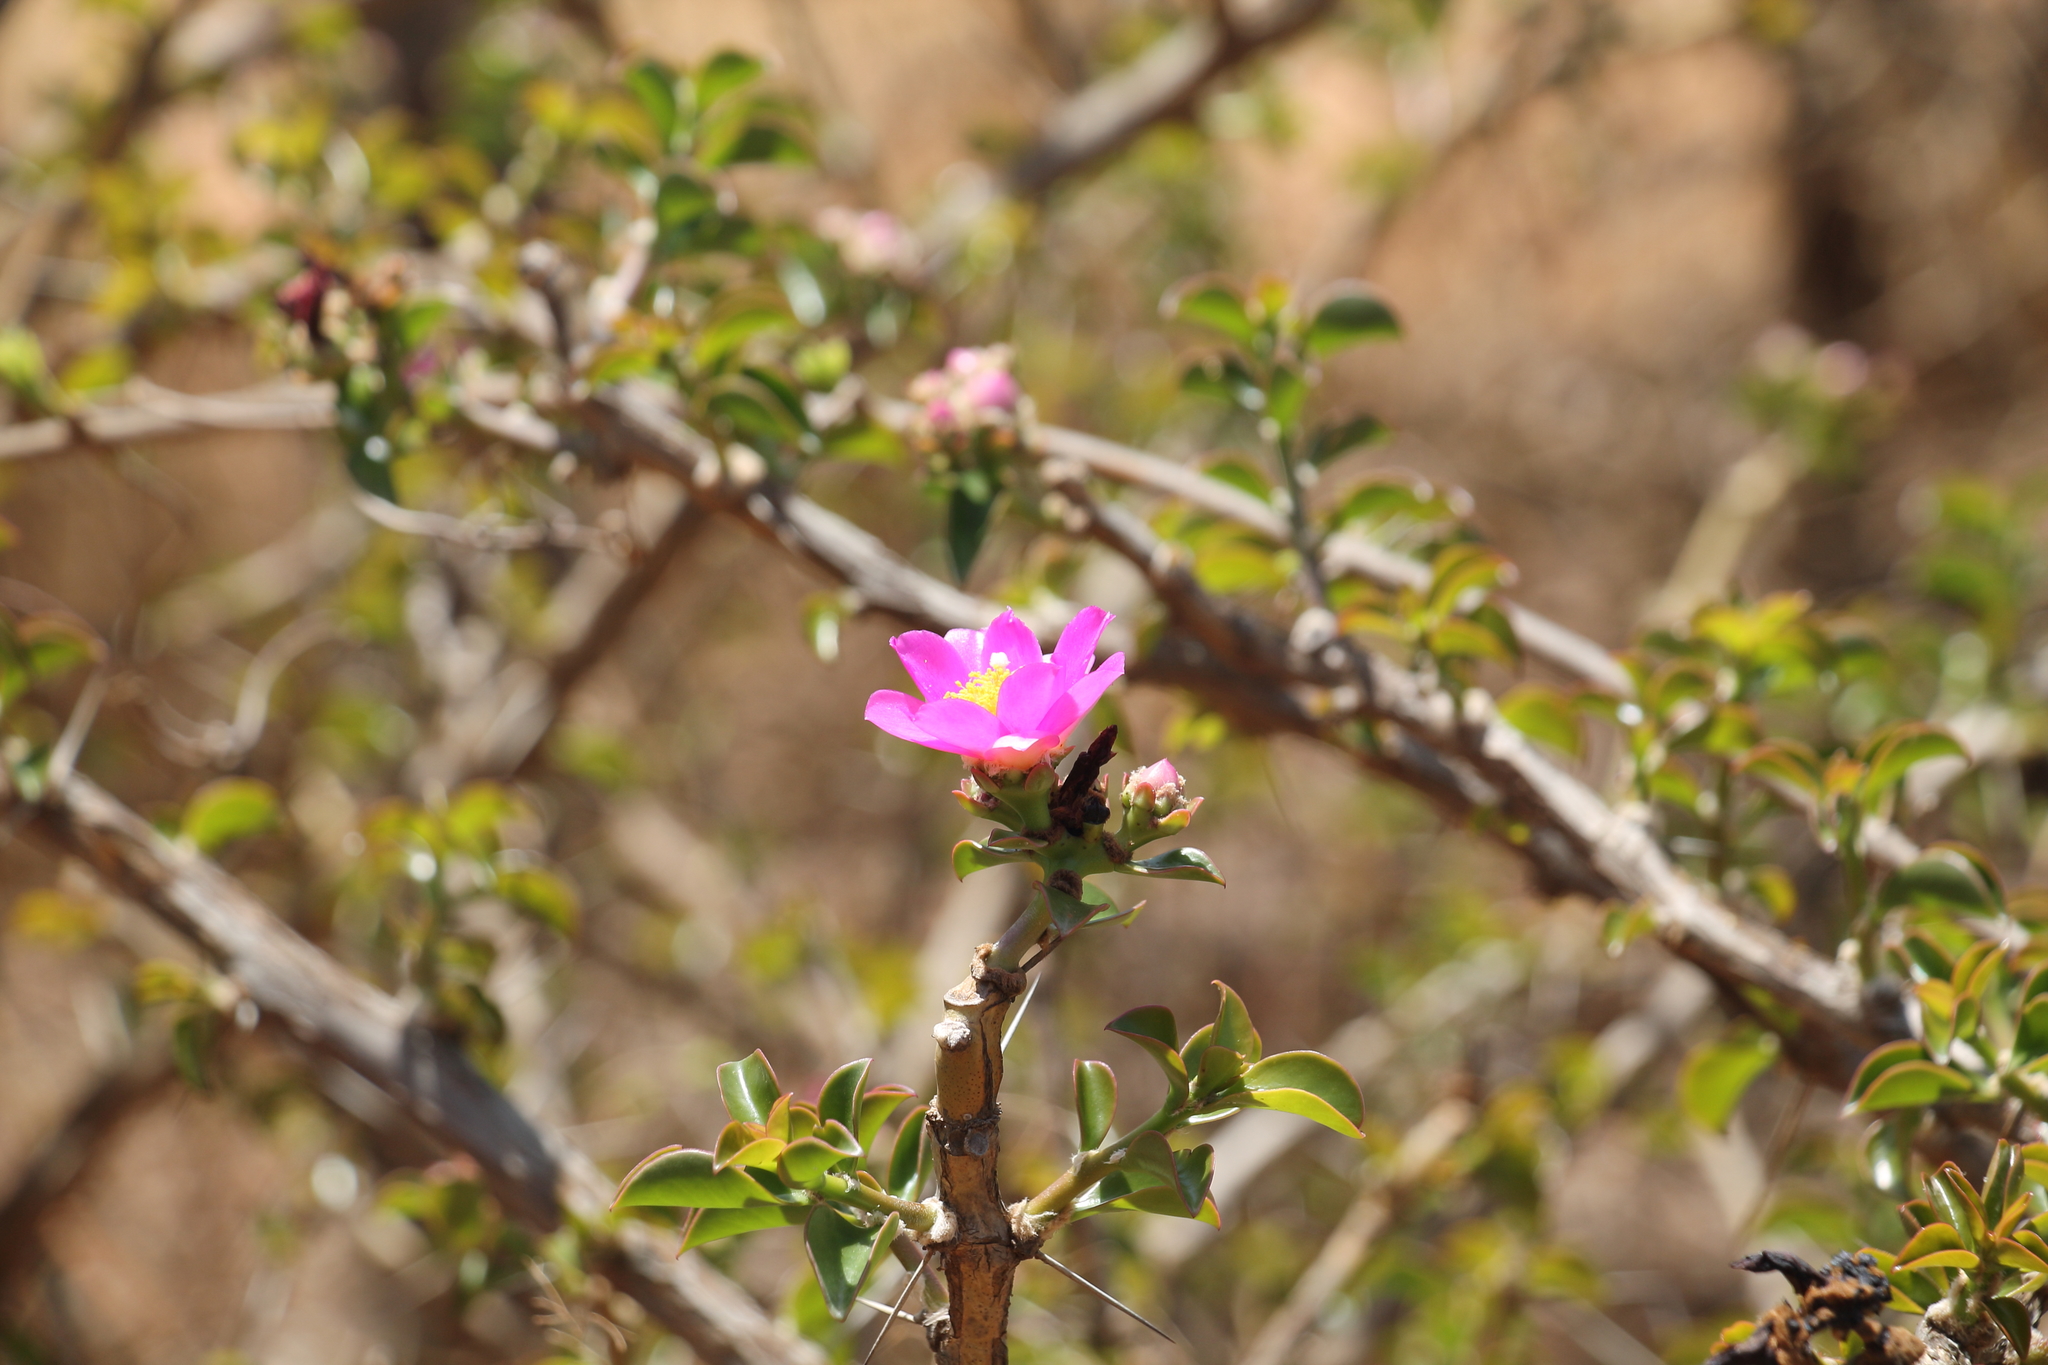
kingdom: Plantae
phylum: Tracheophyta
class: Magnoliopsida
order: Caryophyllales
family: Cactaceae
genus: Pereskia
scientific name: Pereskia bahiensis
